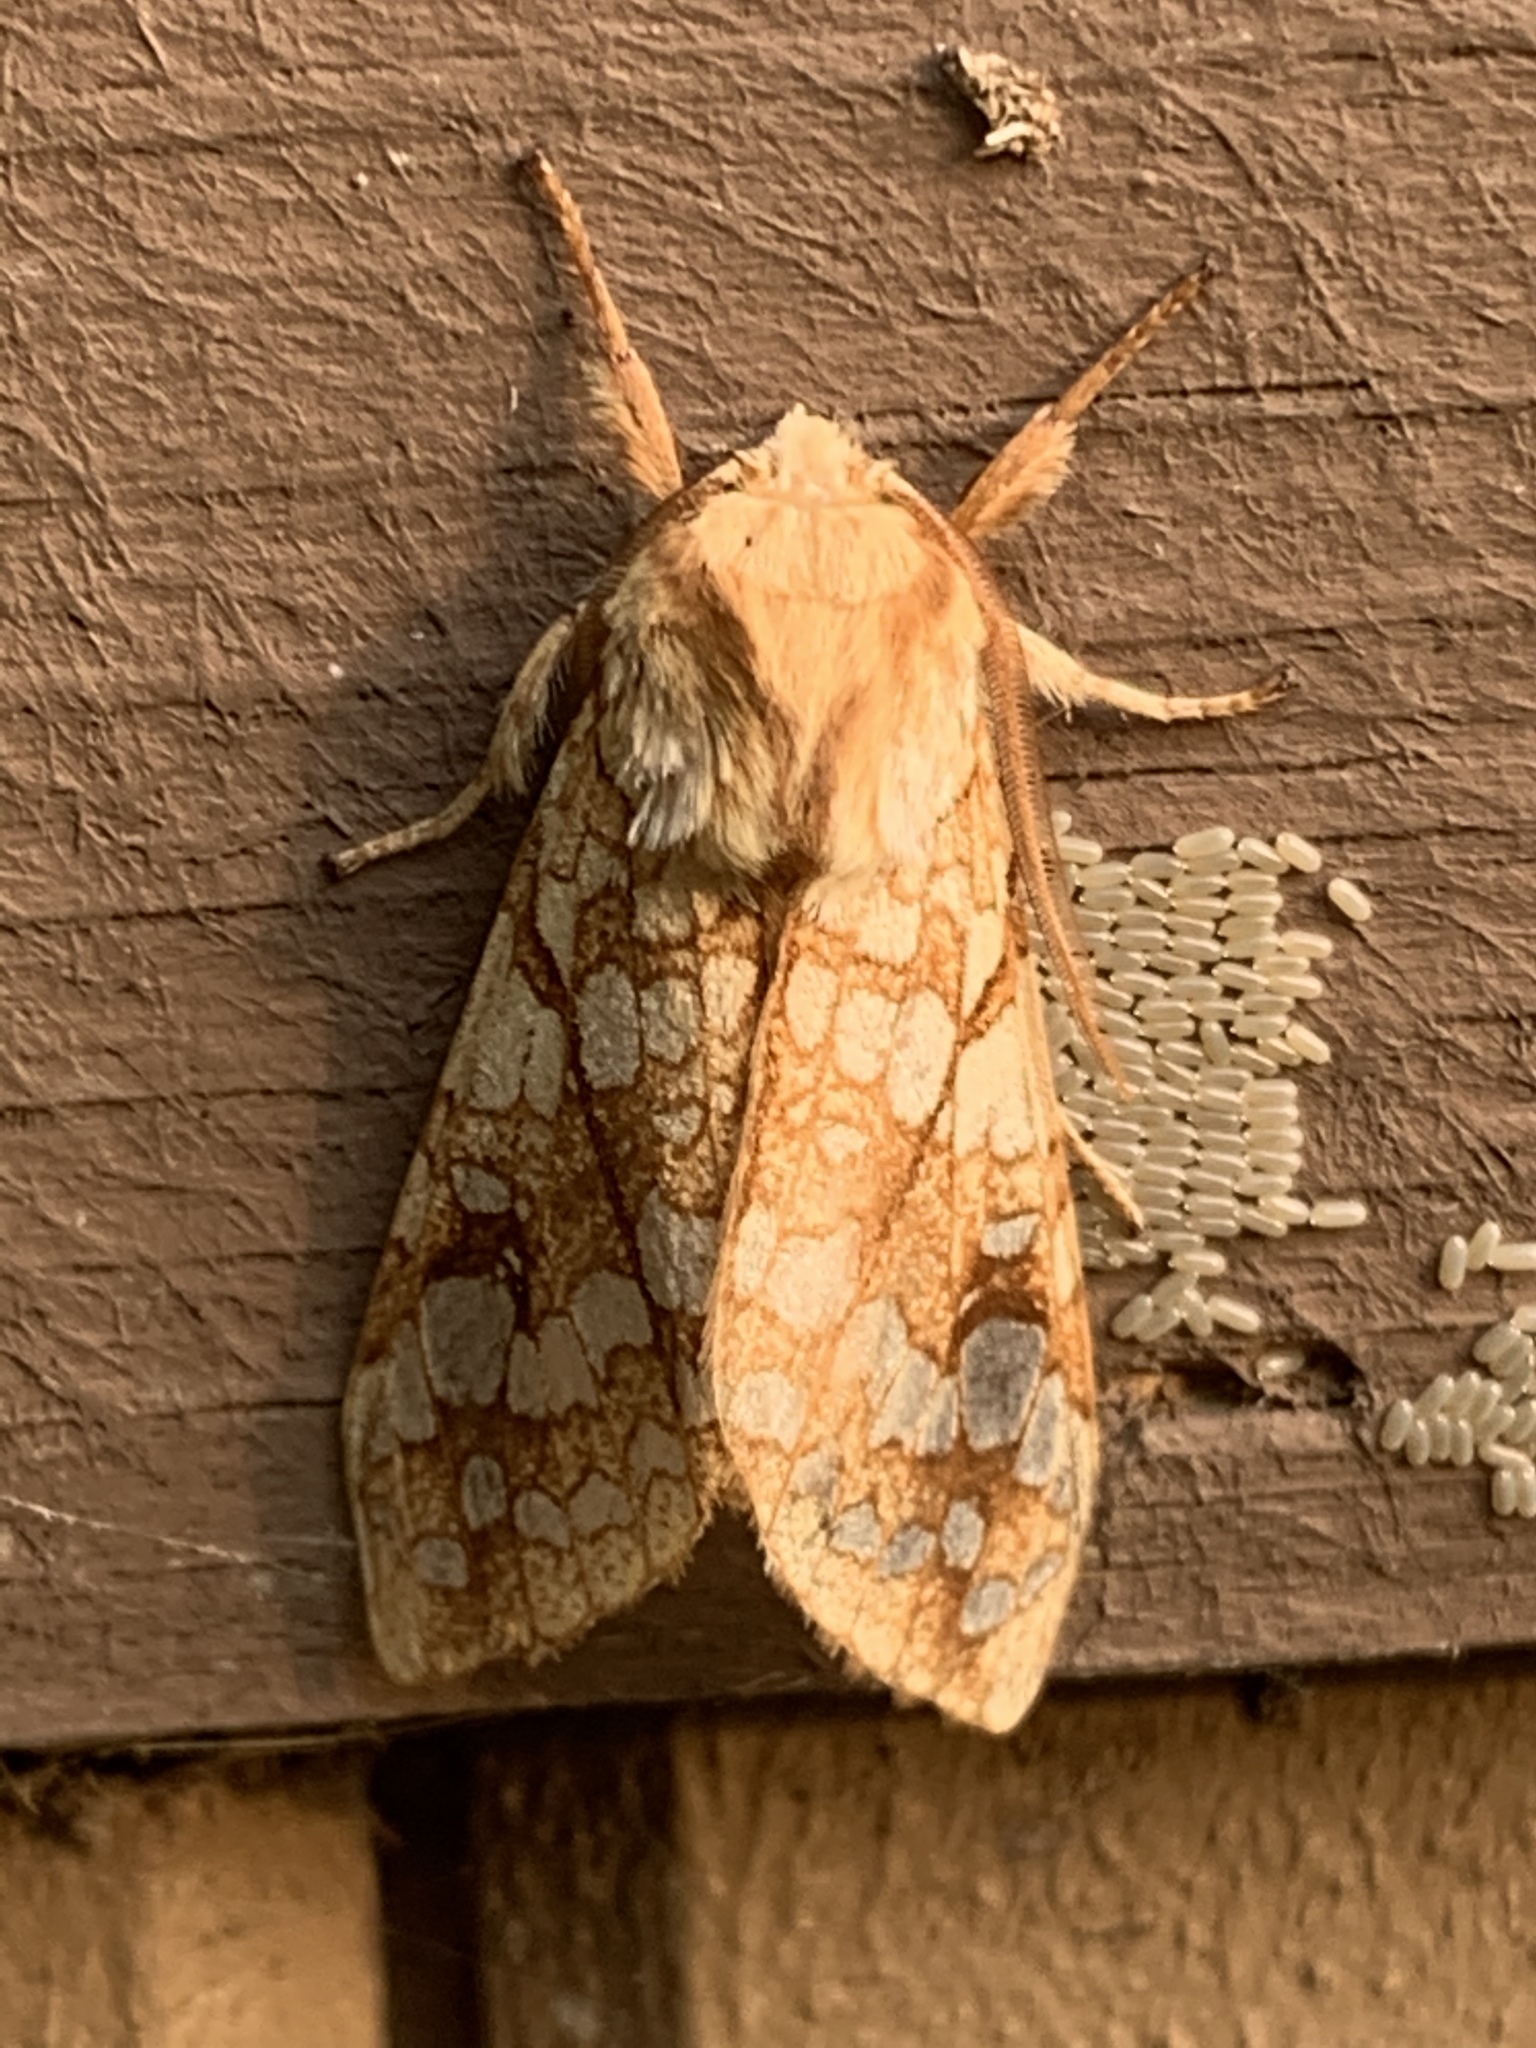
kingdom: Animalia
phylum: Arthropoda
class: Insecta
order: Lepidoptera
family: Erebidae
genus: Lophocampa
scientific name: Lophocampa caryae
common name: Hickory tussock moth
